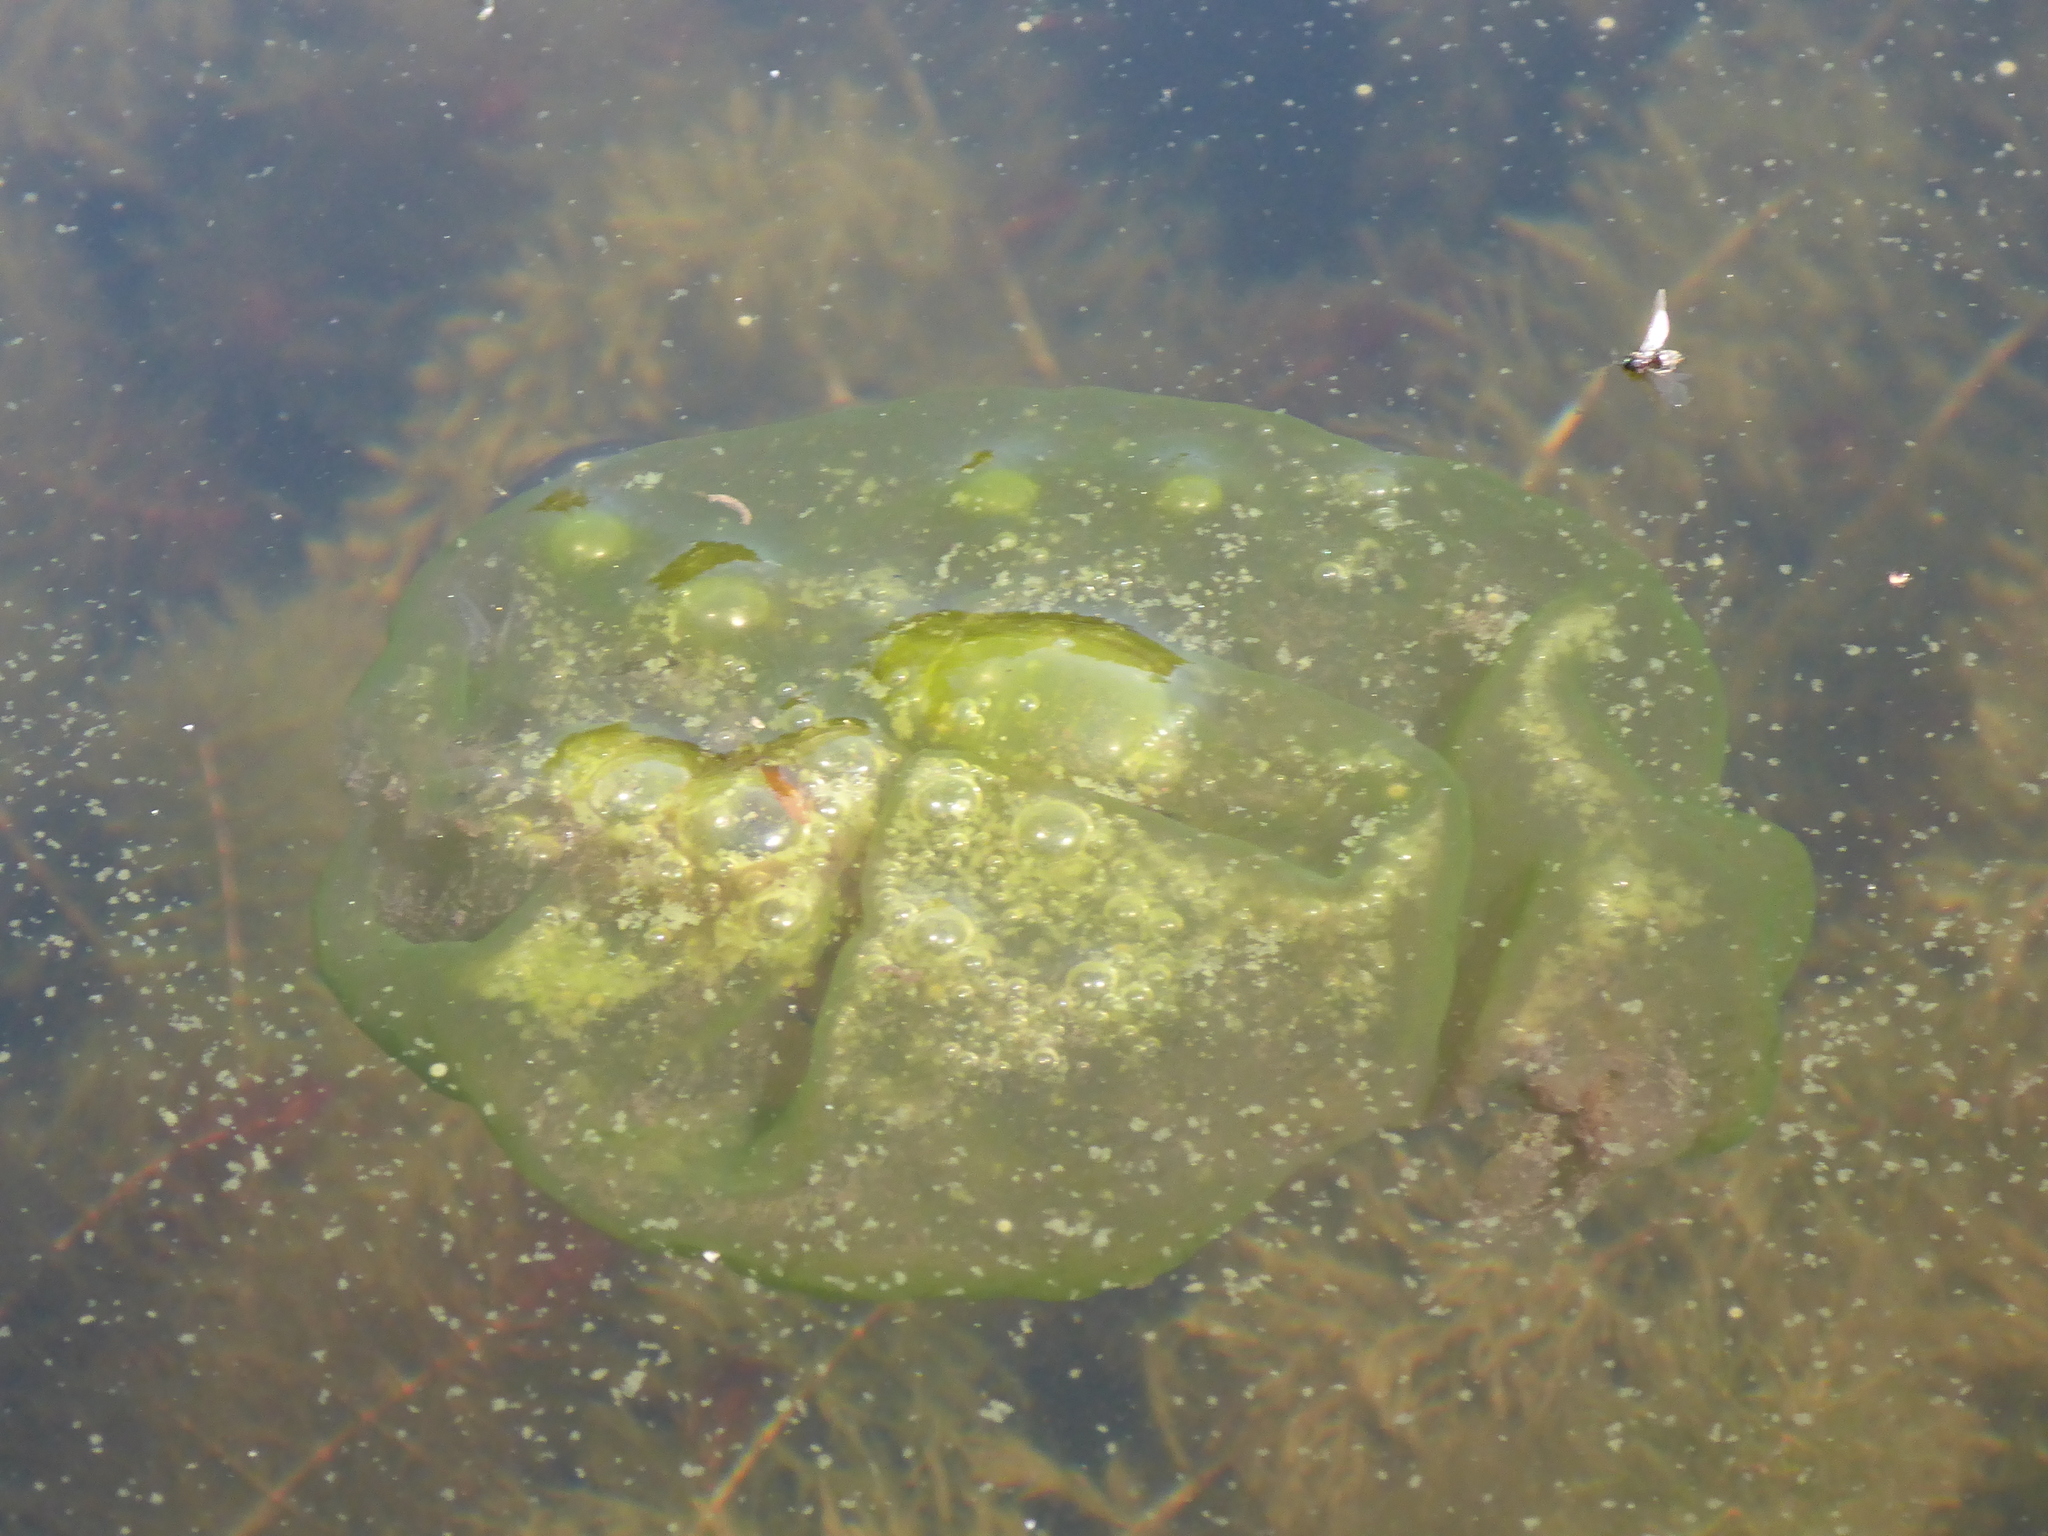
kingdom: Chromista
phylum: Ciliophora
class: Oligohymenophorea
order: Peritrichida
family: Ophrydiidae
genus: Ophrydium
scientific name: Ophrydium
